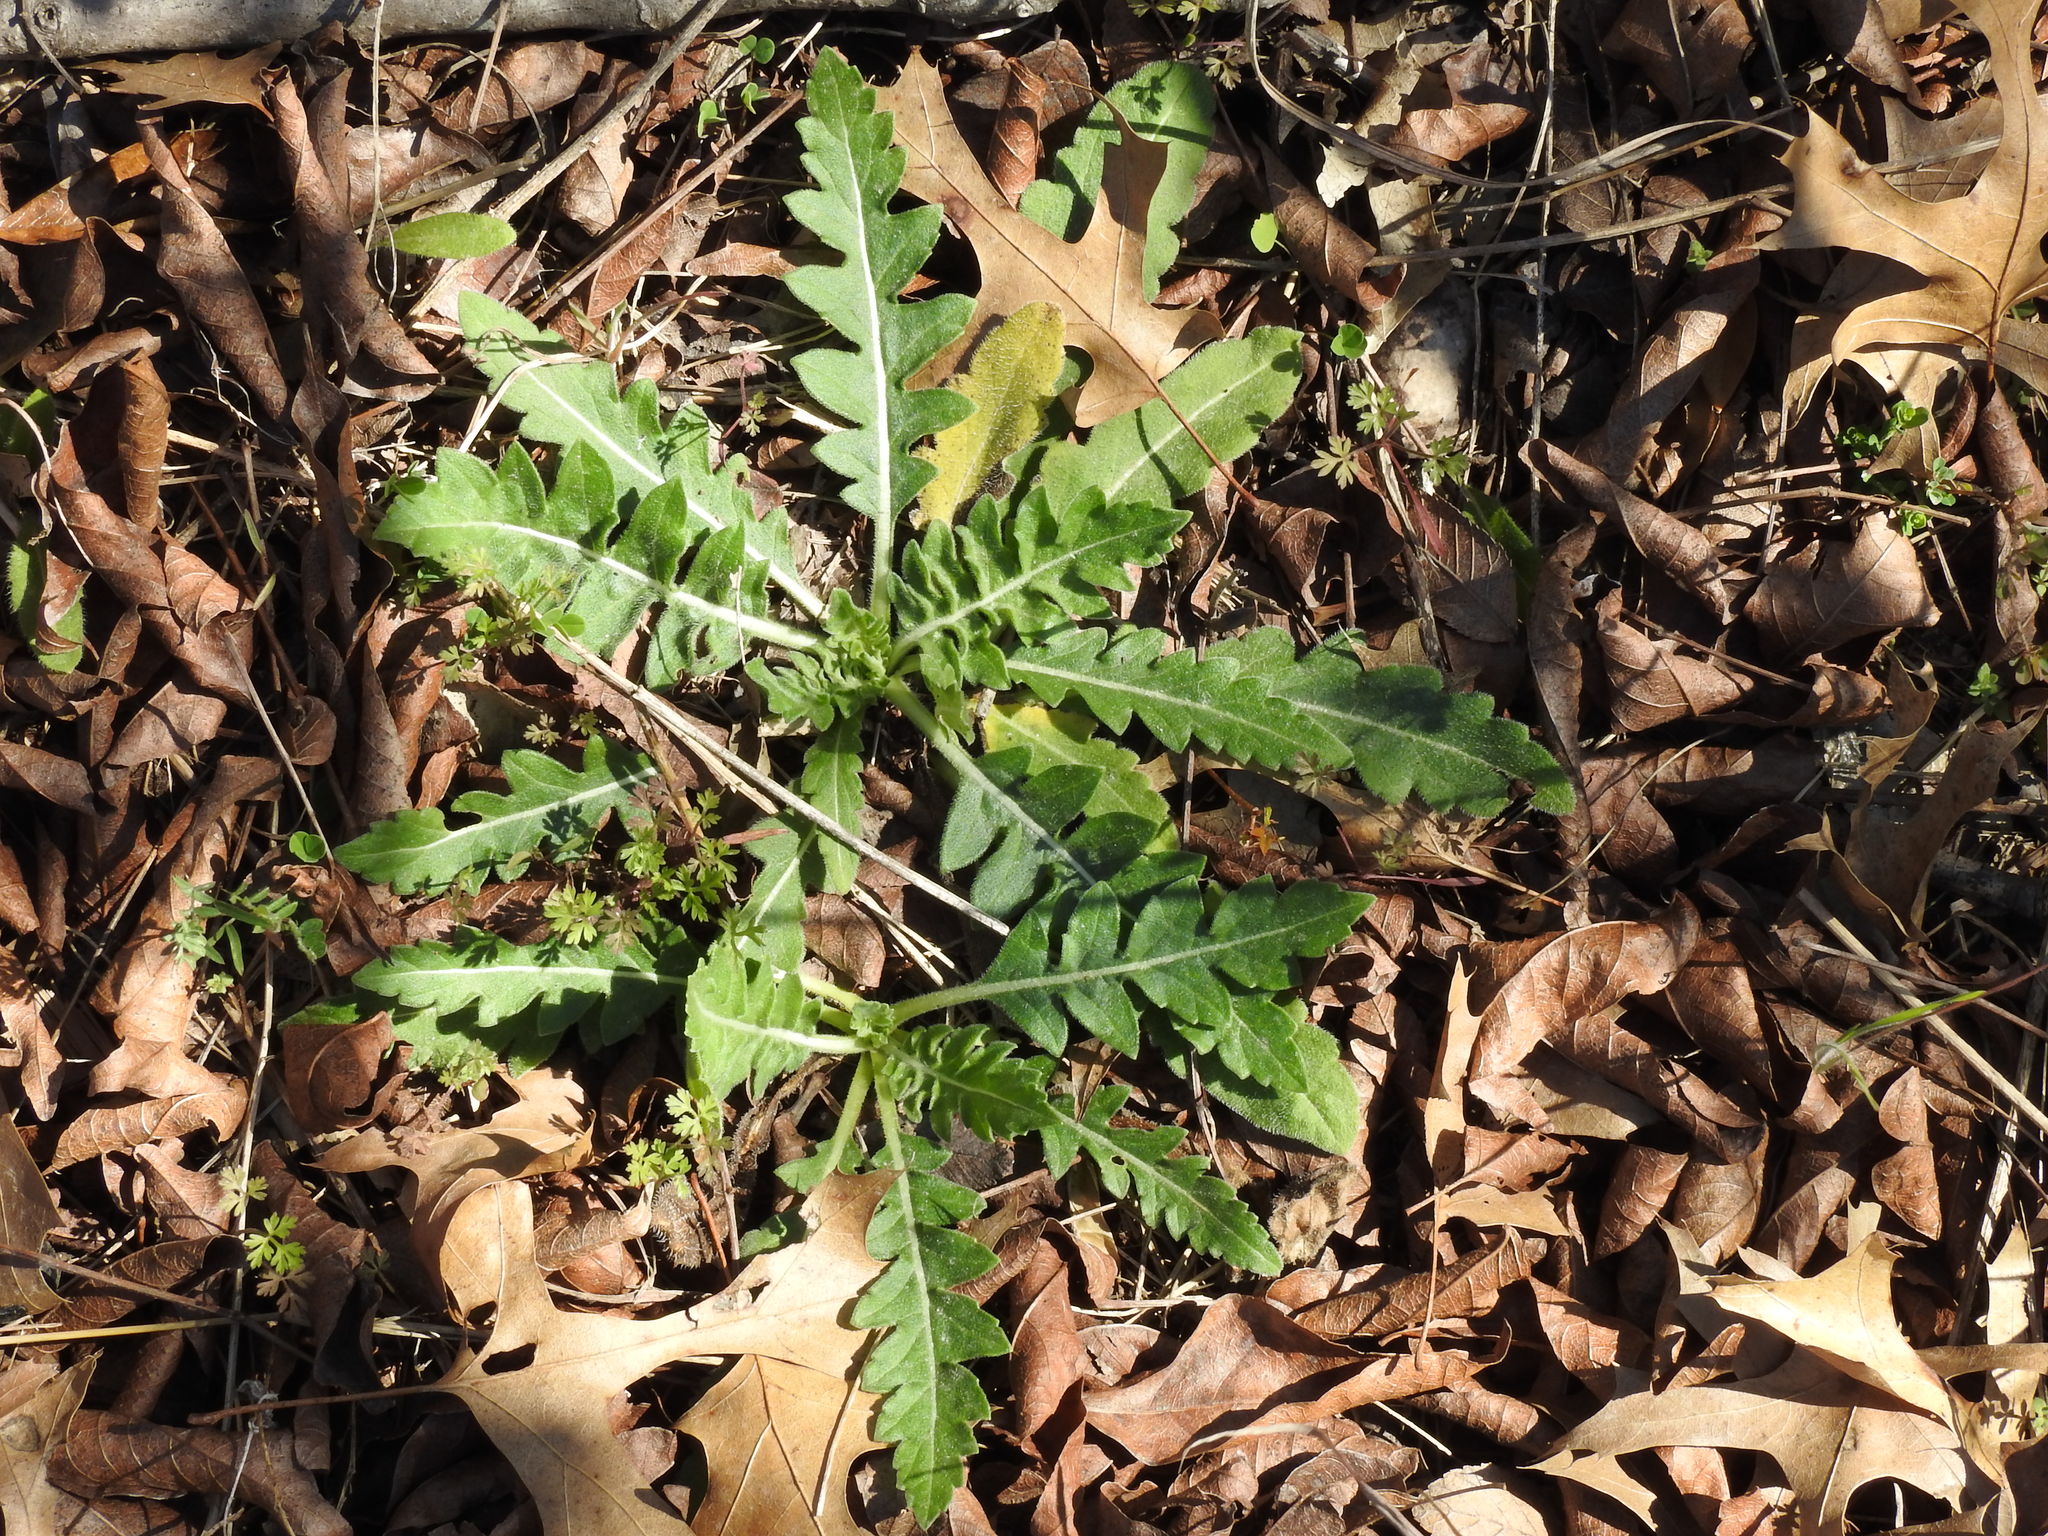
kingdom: Plantae
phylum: Tracheophyta
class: Magnoliopsida
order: Asterales
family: Asteraceae
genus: Engelmannia
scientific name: Engelmannia peristenia
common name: Engelmann's daisy
